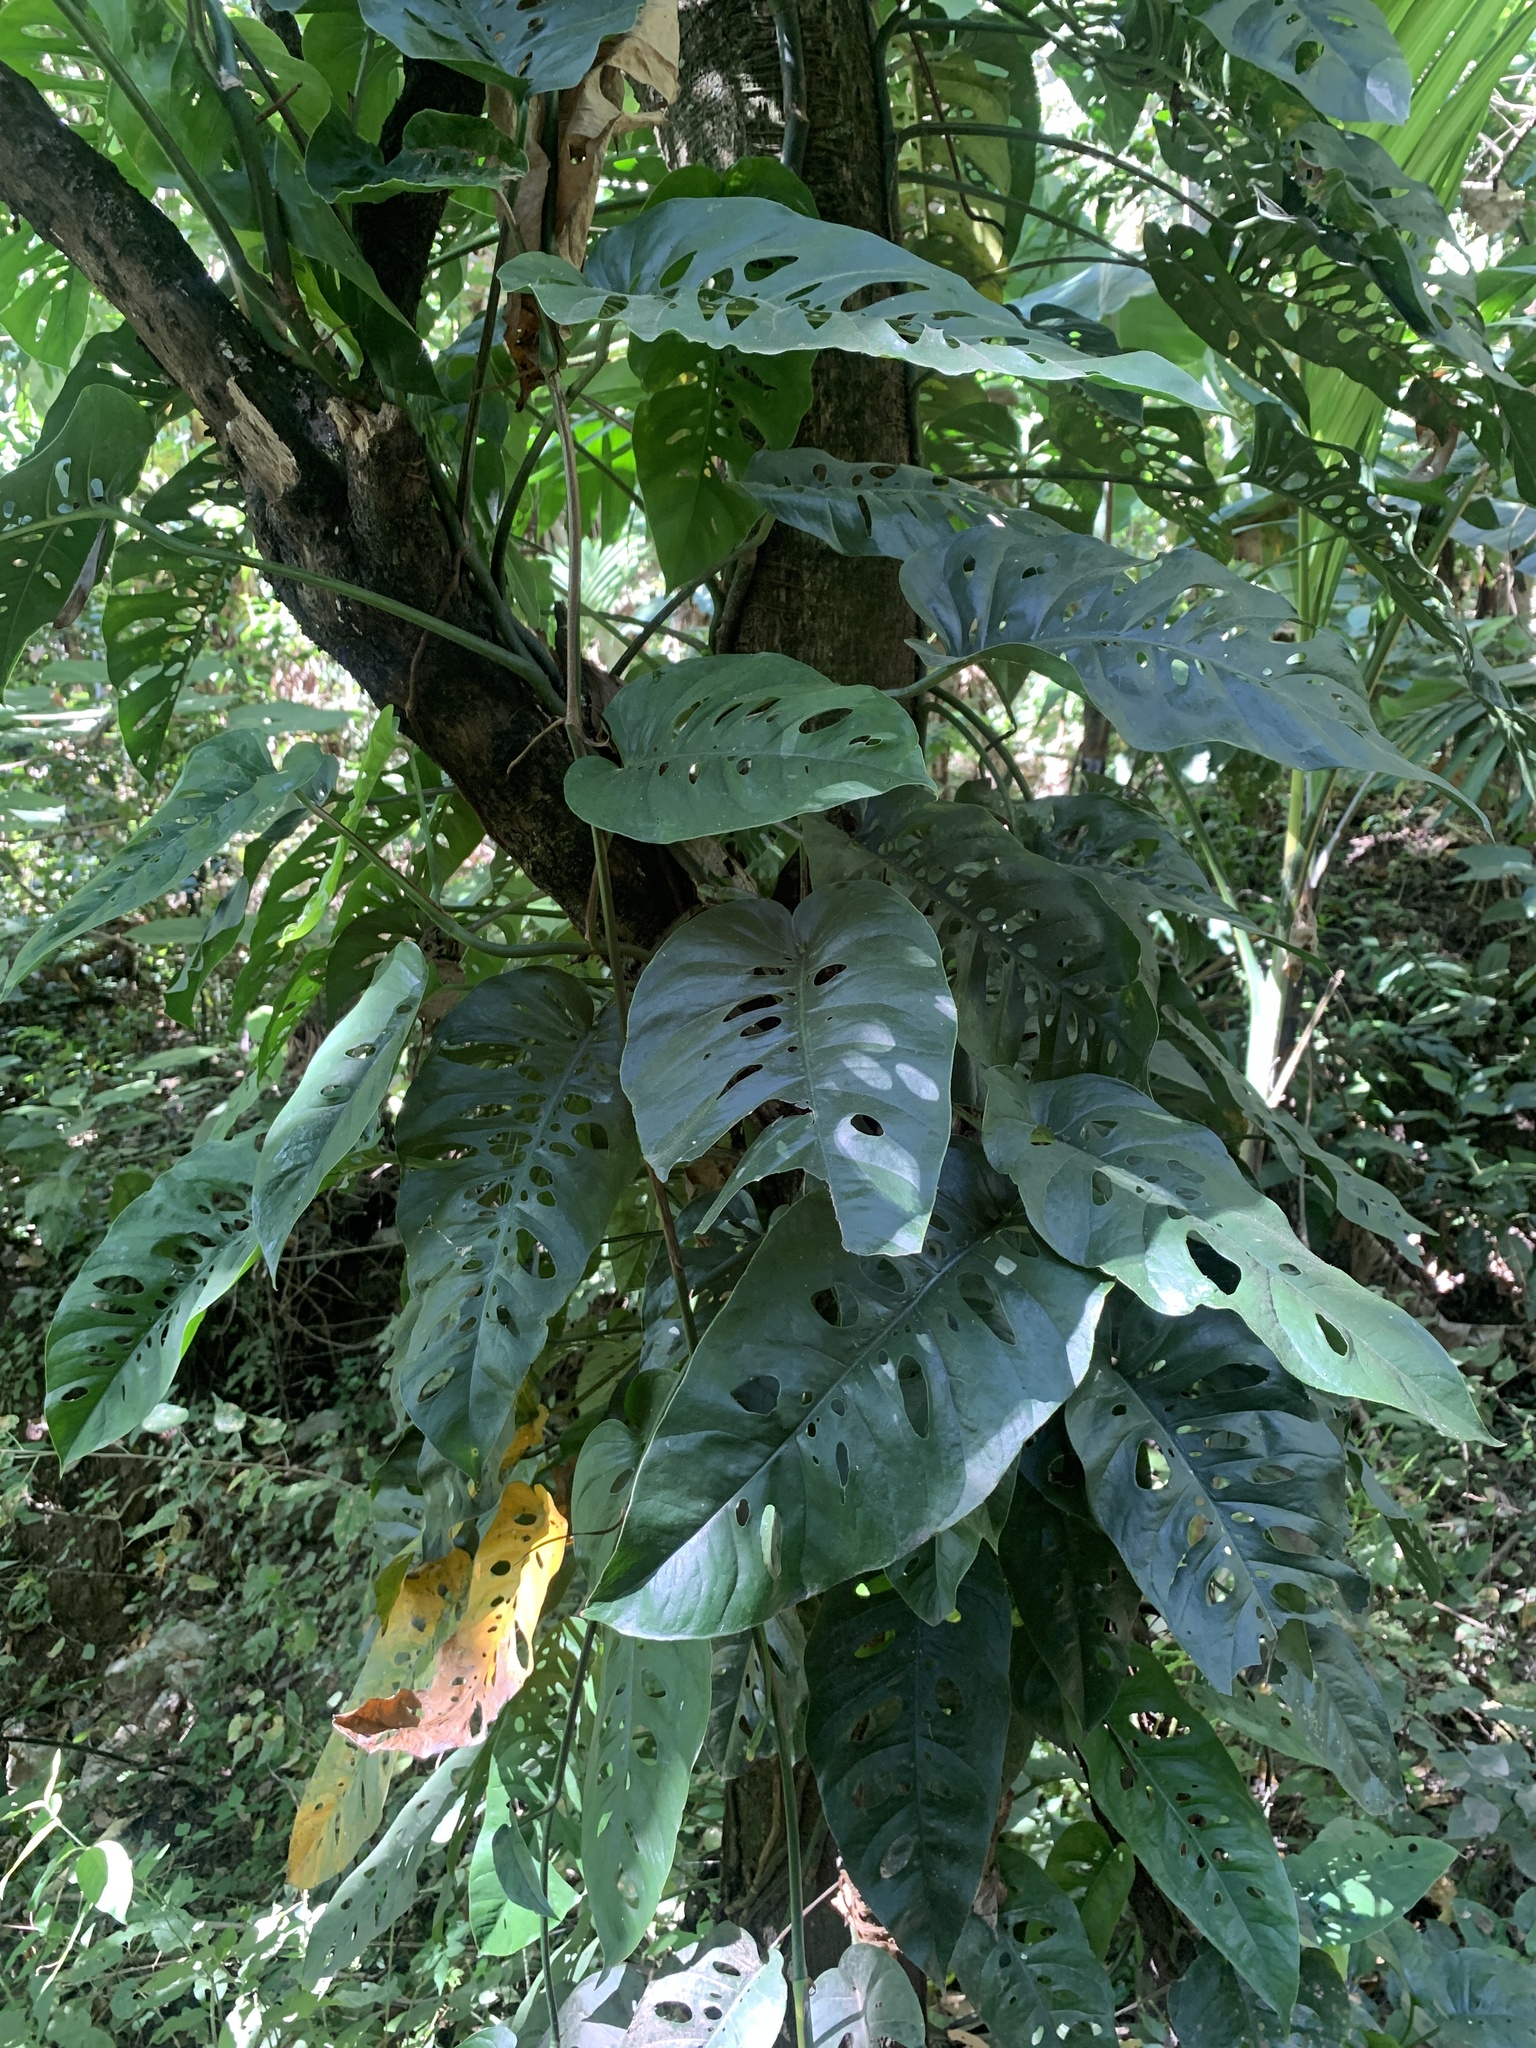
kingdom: Plantae
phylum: Tracheophyta
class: Liliopsida
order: Alismatales
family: Araceae
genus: Monstera
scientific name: Monstera siltepecana
